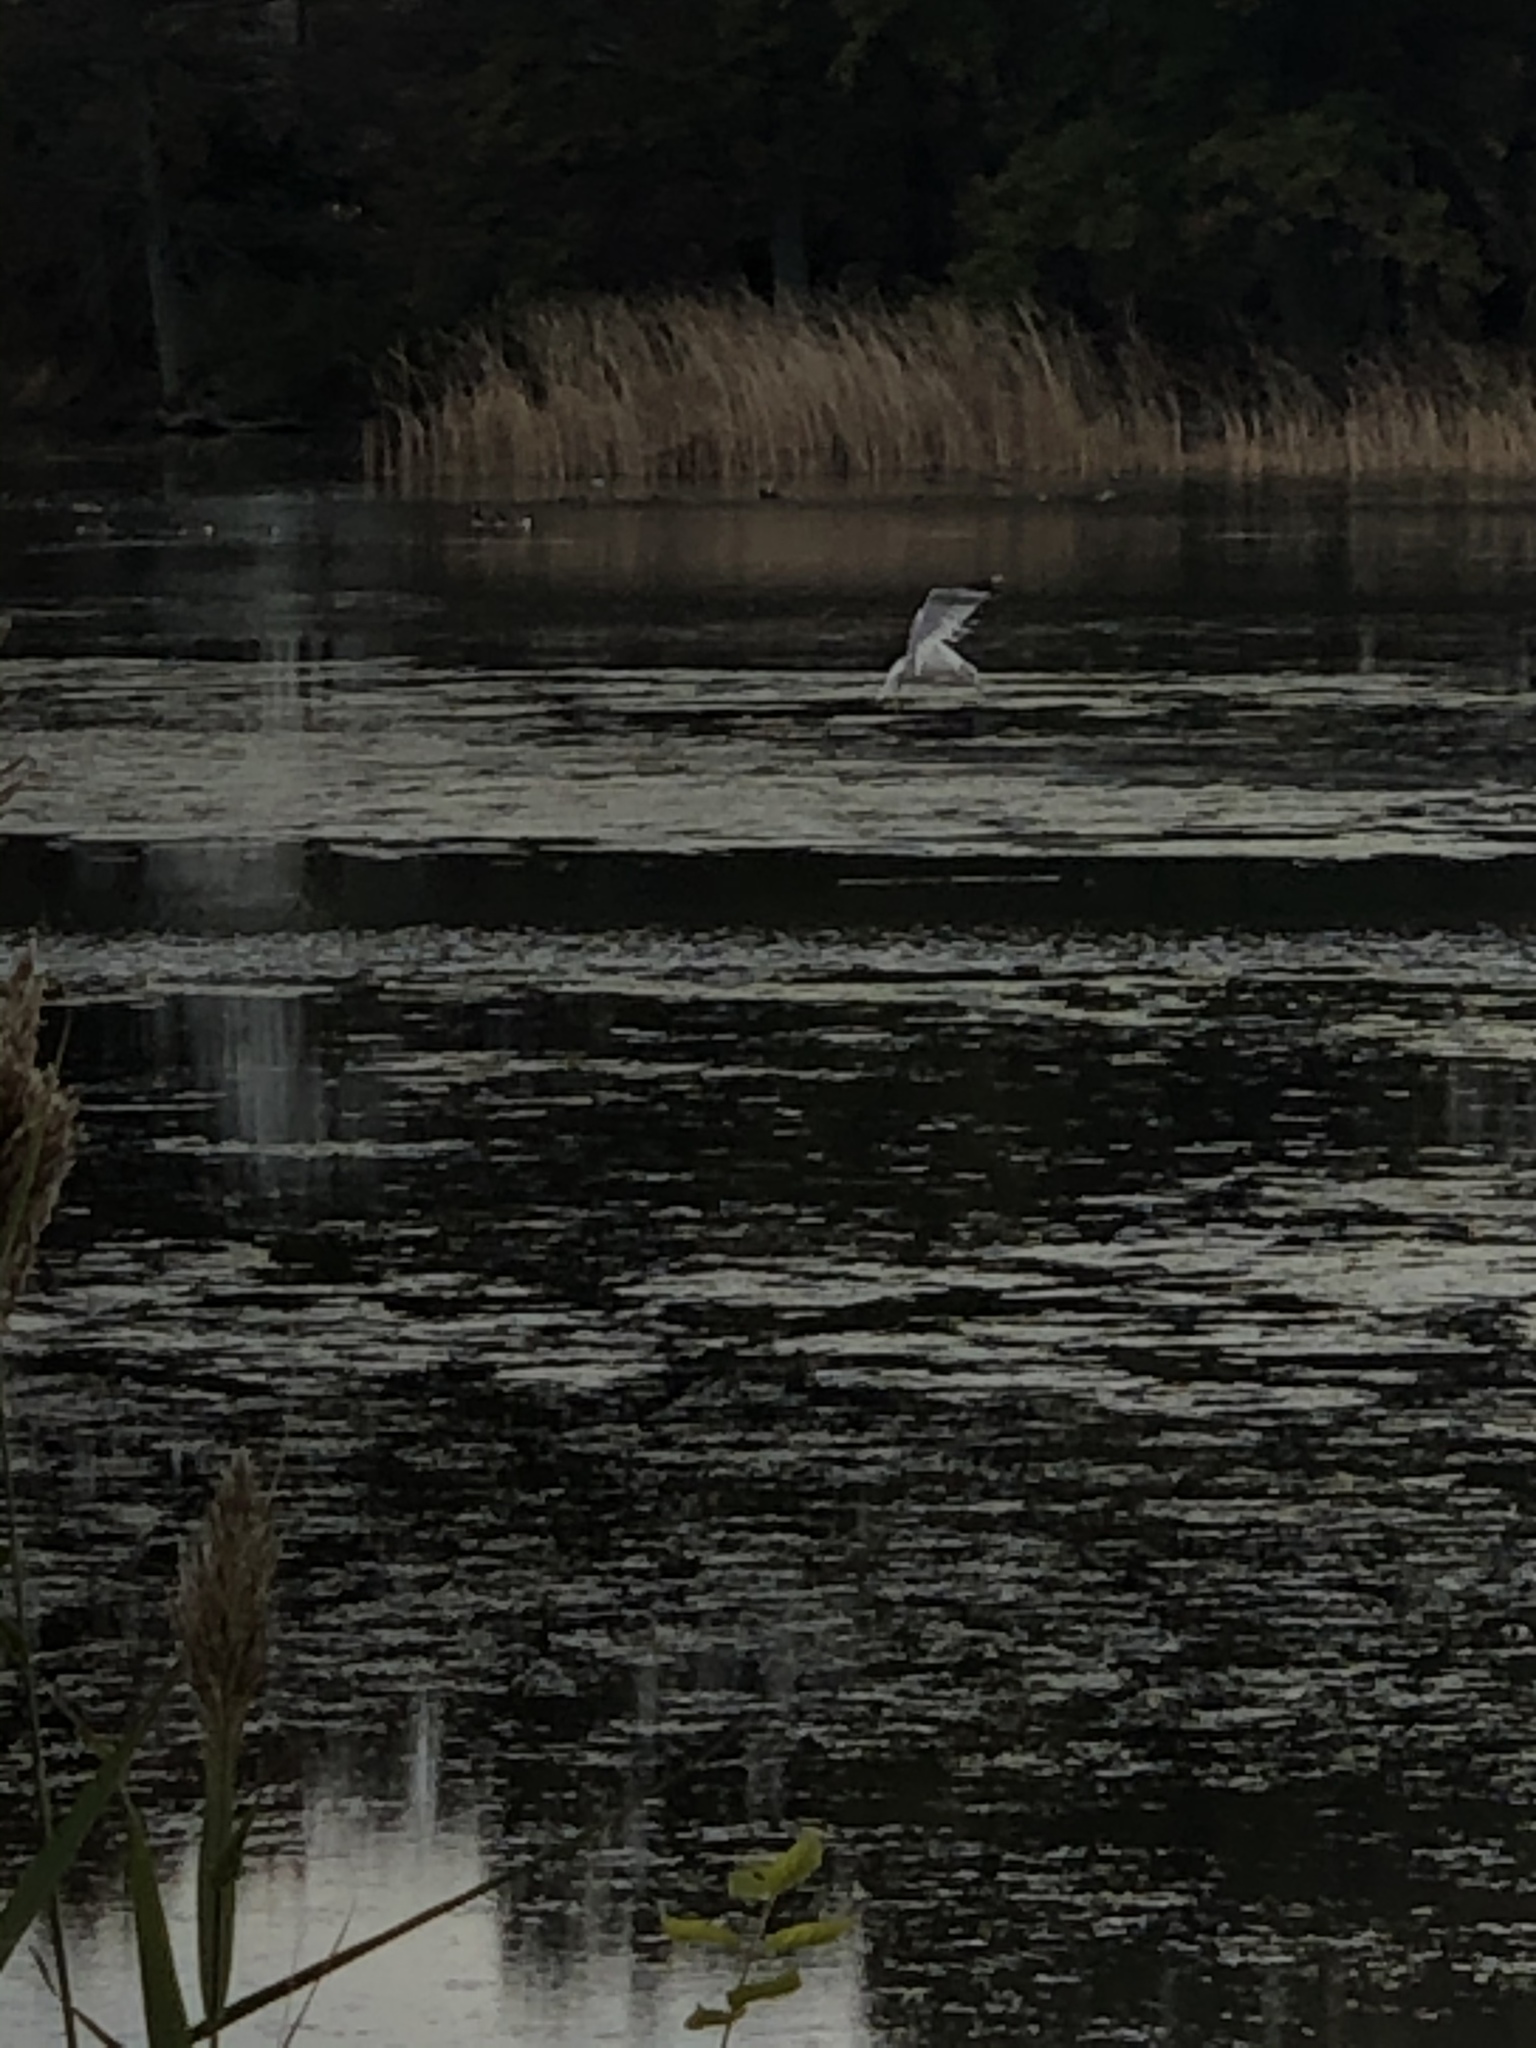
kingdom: Animalia
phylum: Chordata
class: Aves
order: Charadriiformes
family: Laridae
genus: Larus
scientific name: Larus
